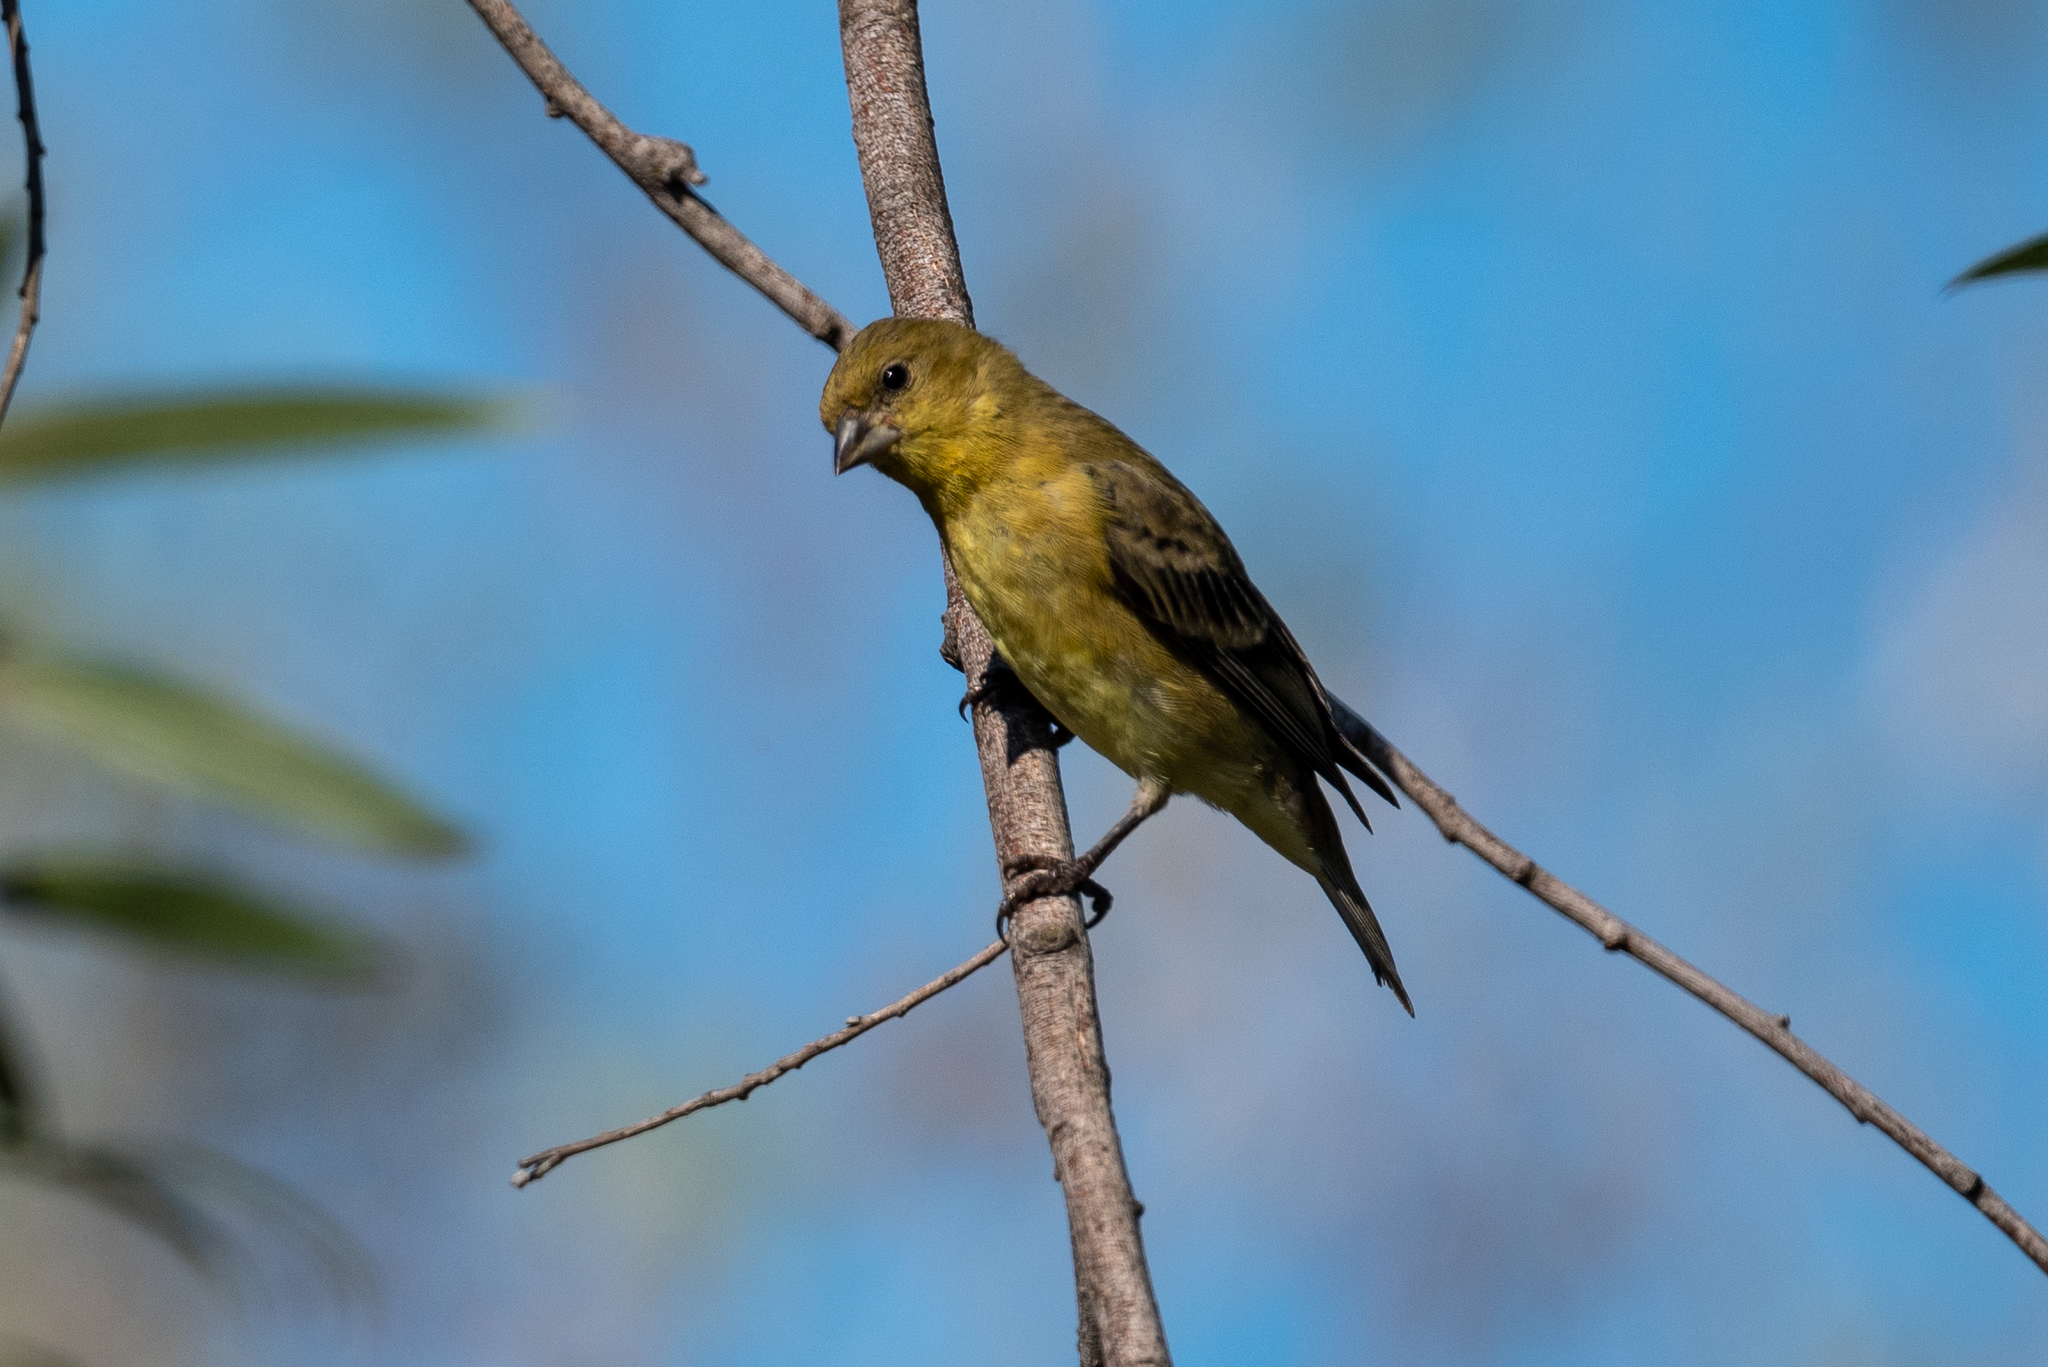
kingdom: Animalia
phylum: Chordata
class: Aves
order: Passeriformes
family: Fringillidae
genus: Spinus
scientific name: Spinus psaltria
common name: Lesser goldfinch
